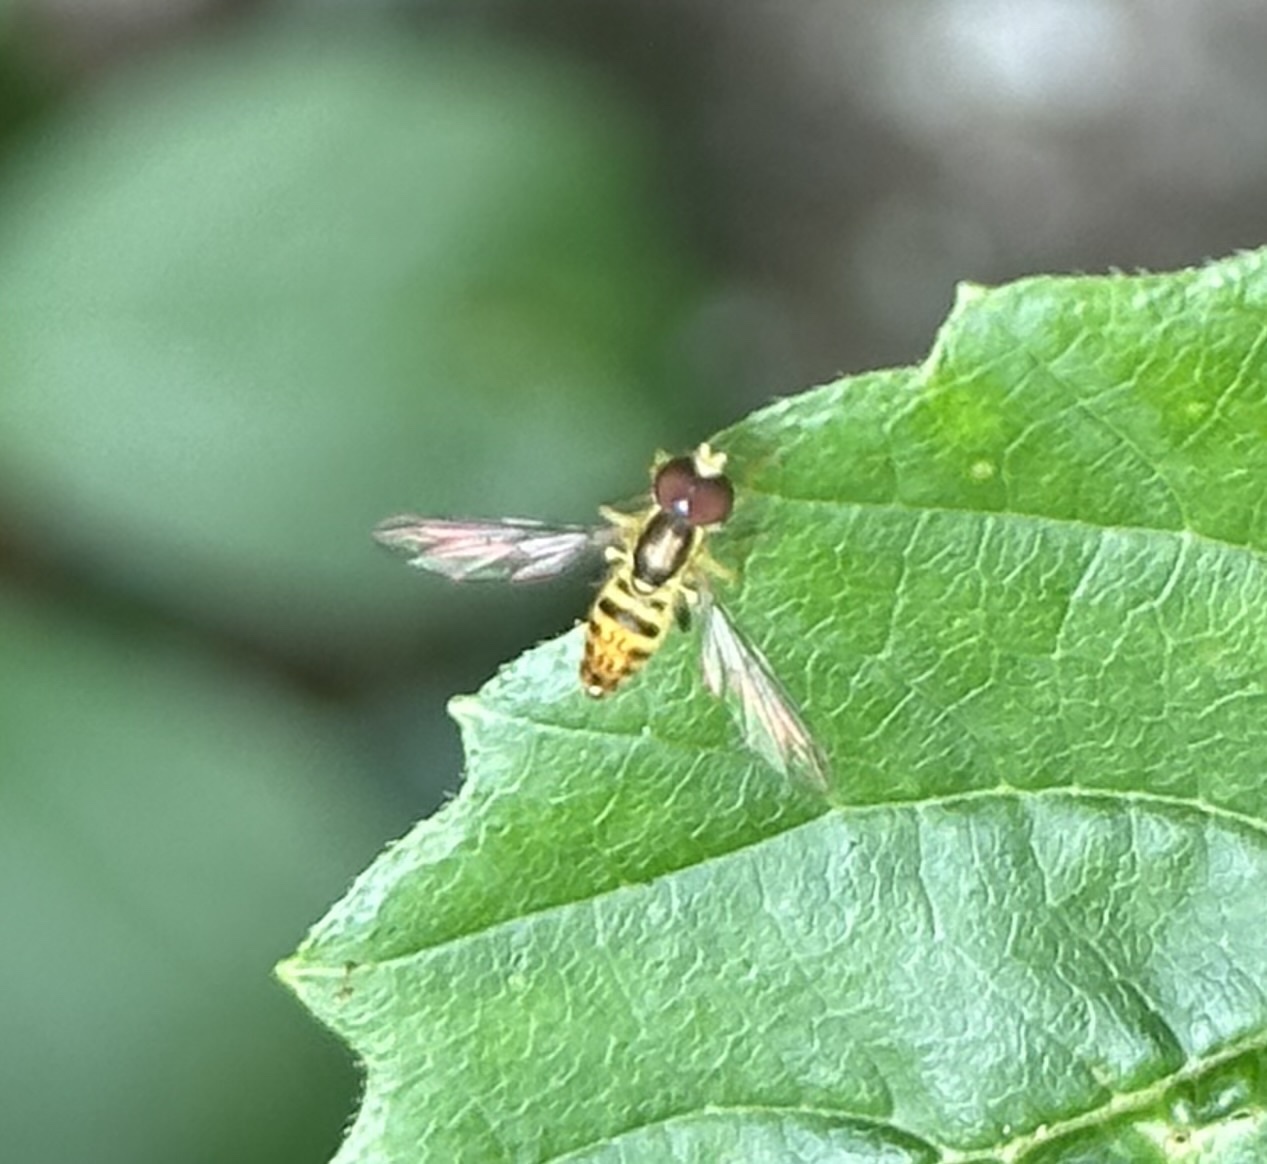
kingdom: Animalia
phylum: Arthropoda
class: Insecta
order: Diptera
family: Syrphidae
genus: Toxomerus
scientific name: Toxomerus geminatus
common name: Eastern calligrapher
